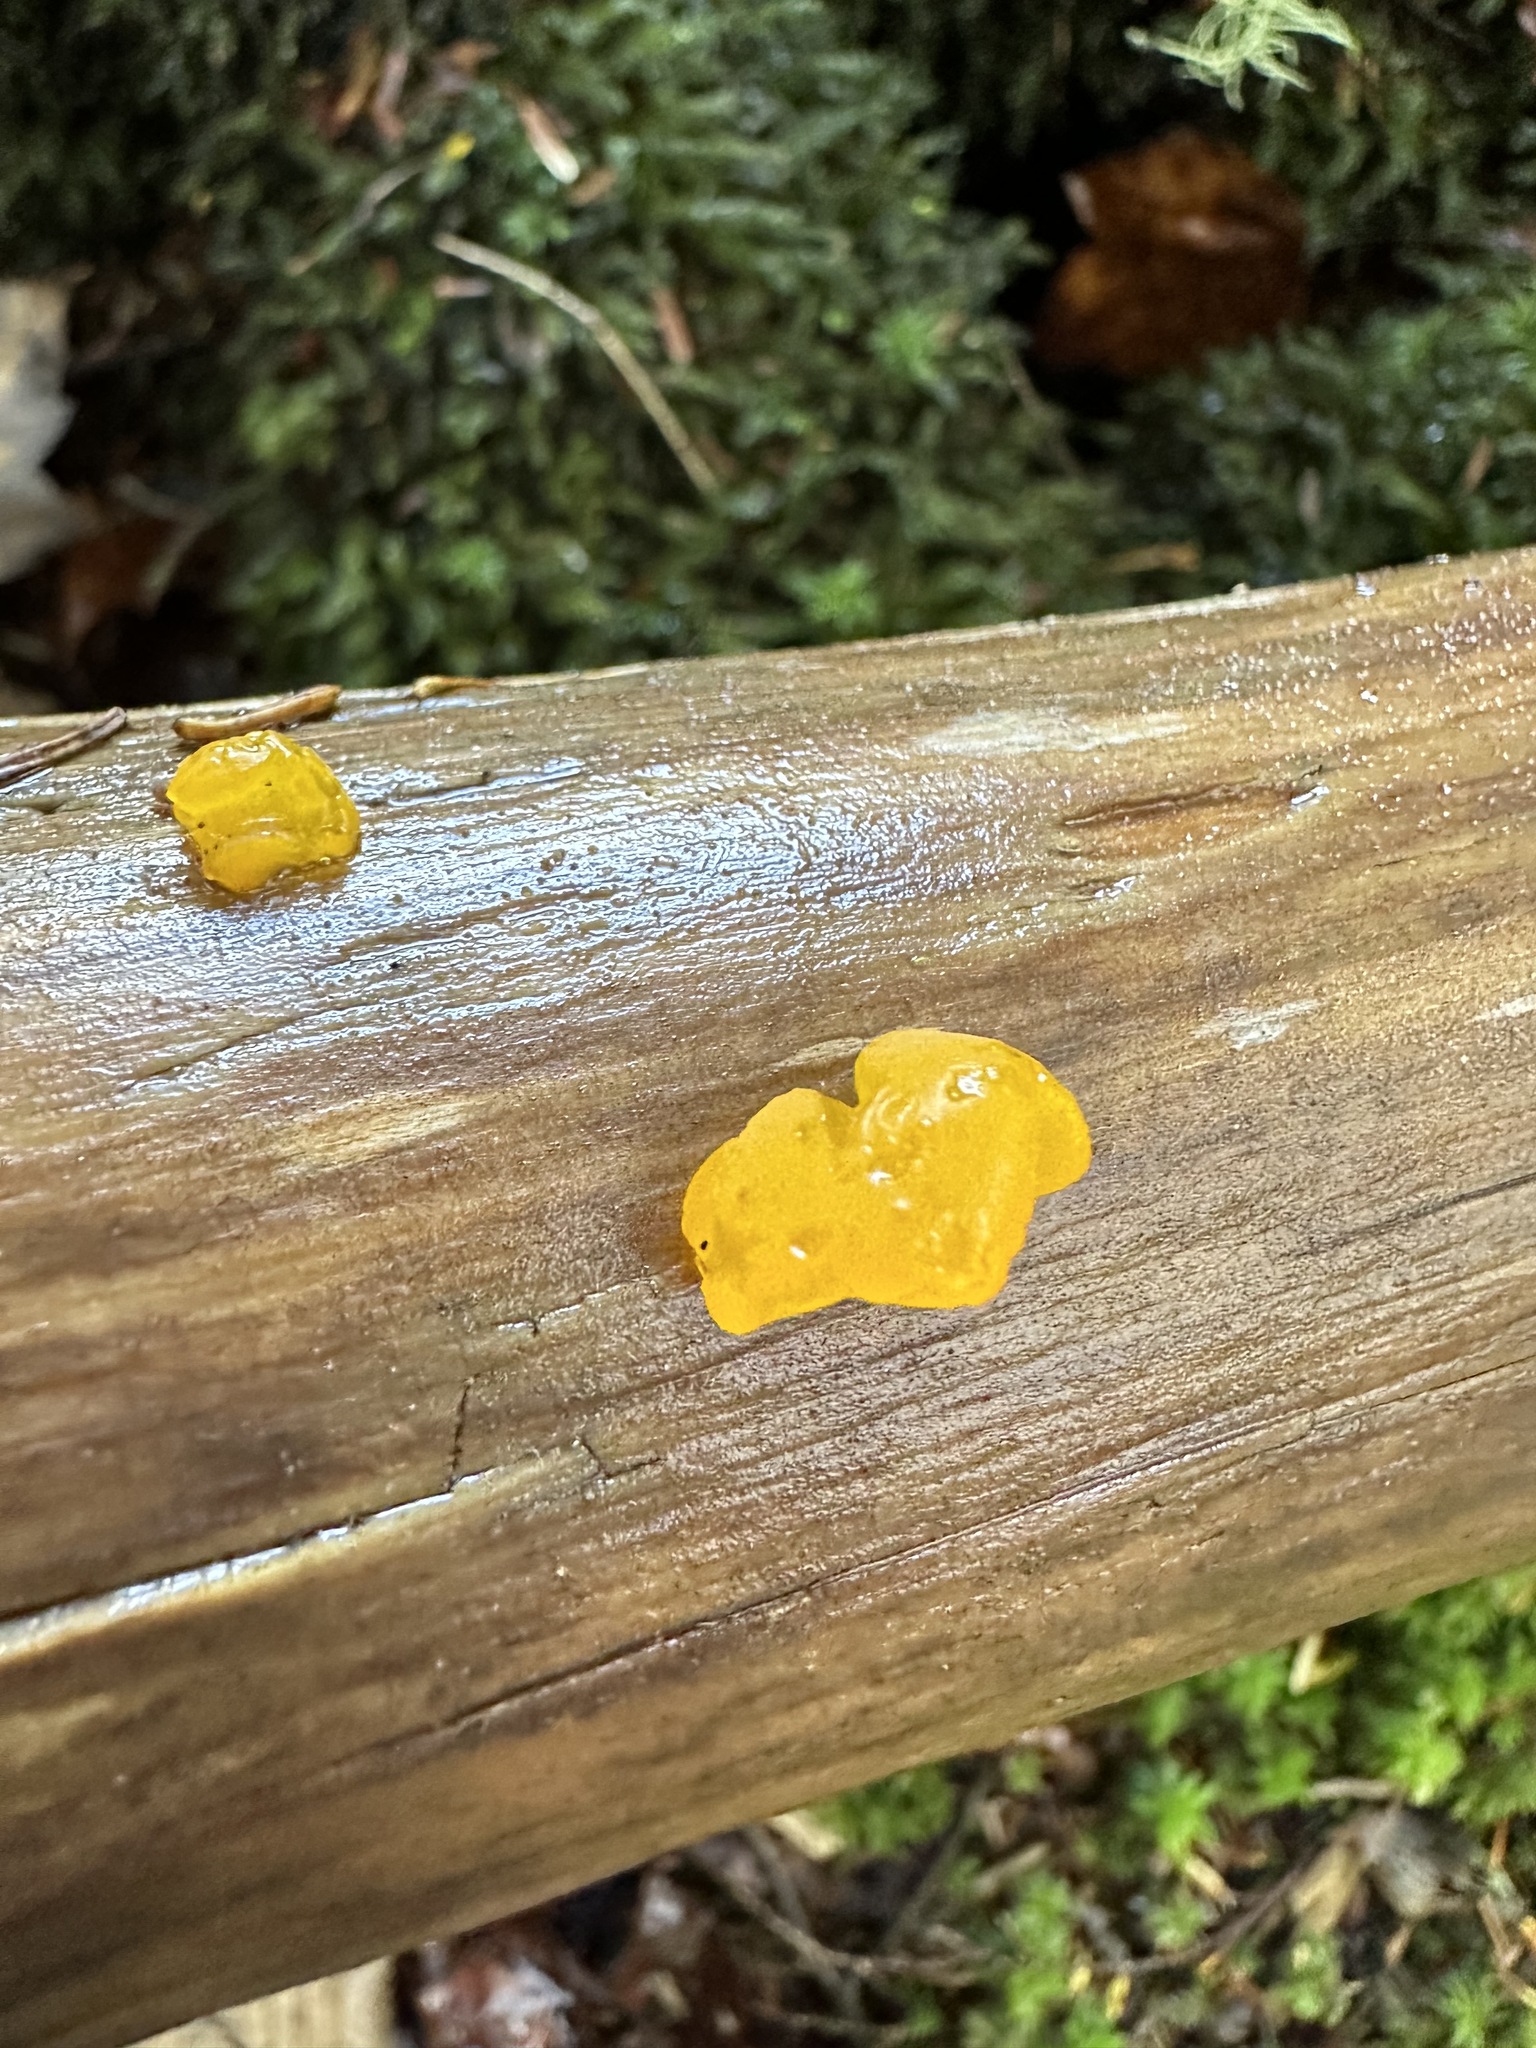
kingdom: Fungi
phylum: Basidiomycota
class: Dacrymycetes
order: Dacrymycetales
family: Dacrymycetaceae
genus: Dacrymyces
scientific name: Dacrymyces chrysospermus
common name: Orange jelly spot
